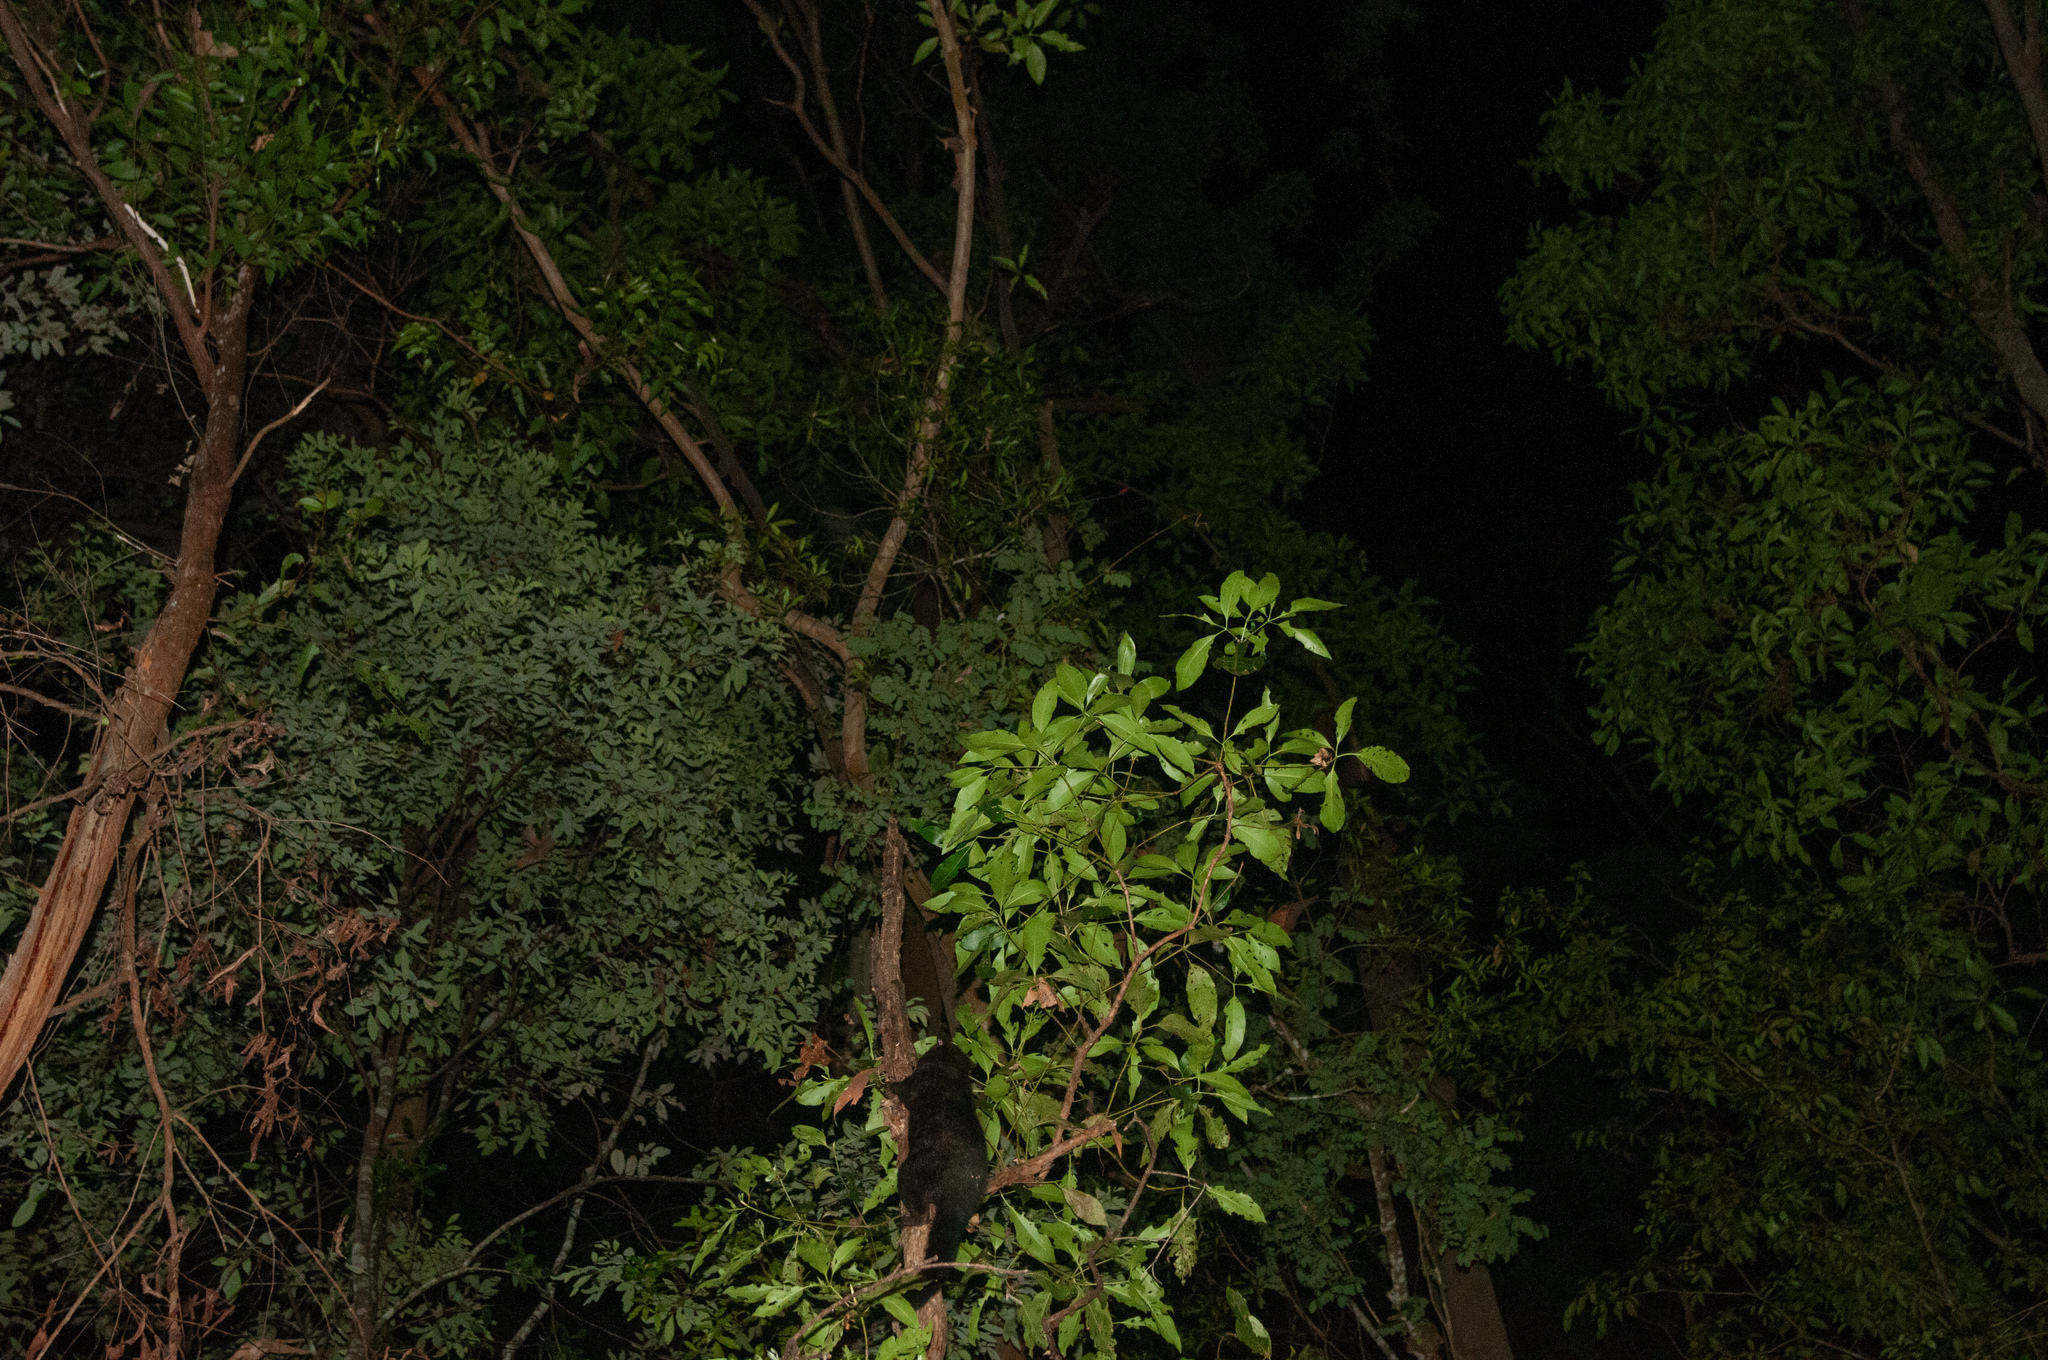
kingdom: Animalia
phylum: Chordata
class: Mammalia
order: Diprotodontia
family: Phalangeridae
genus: Trichosurus
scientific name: Trichosurus caninus
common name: Short-eared possum
